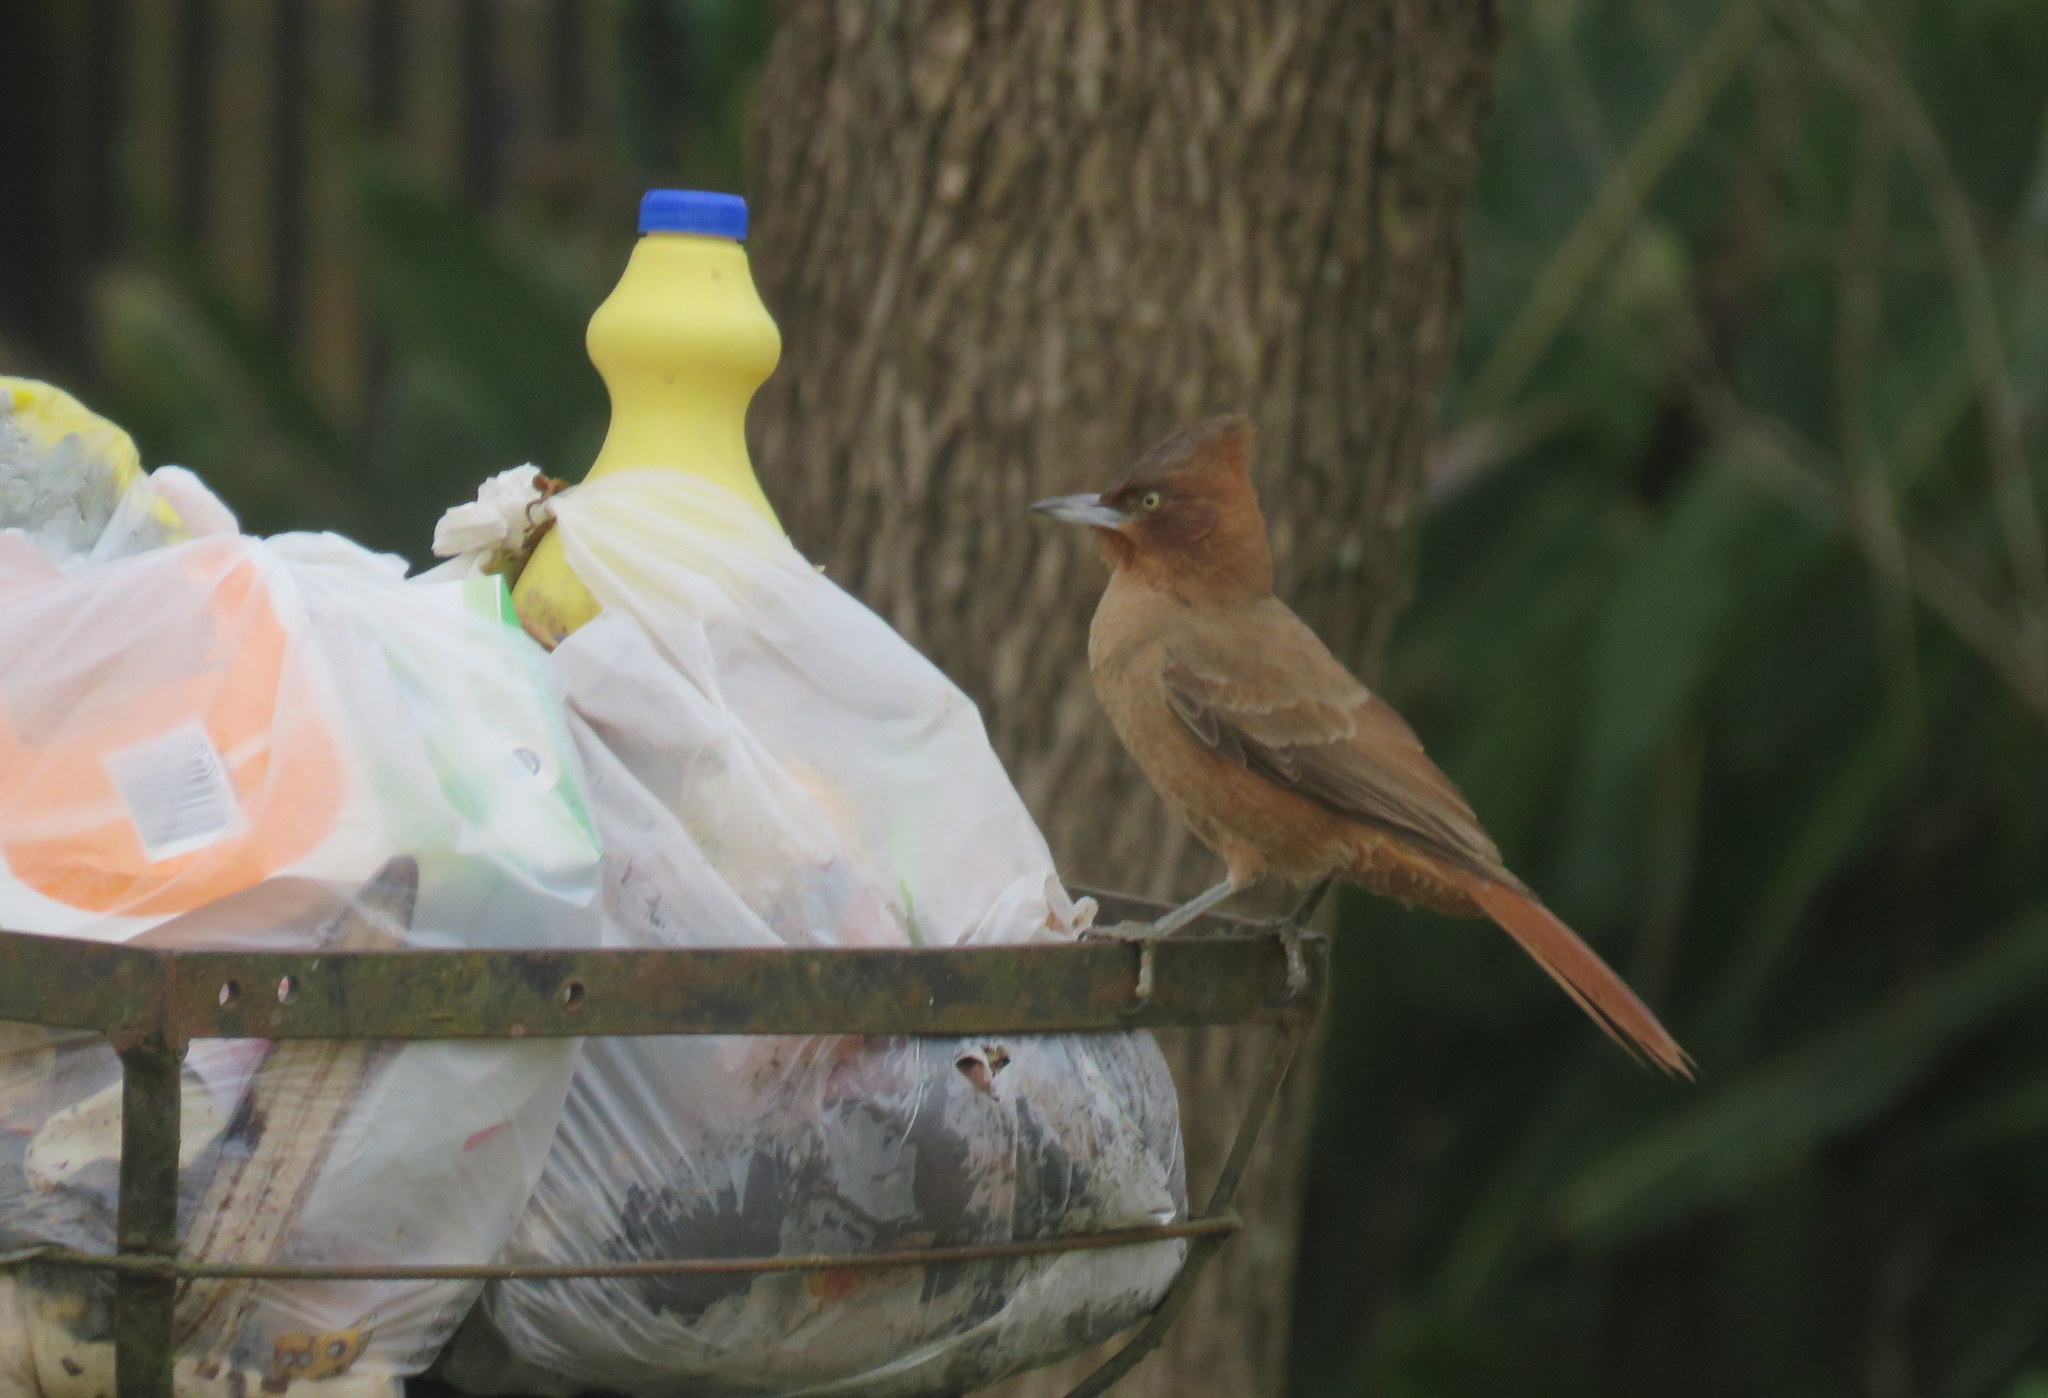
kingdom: Animalia
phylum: Chordata
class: Aves
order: Passeriformes
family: Furnariidae
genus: Pseudoseisura
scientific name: Pseudoseisura lophotes
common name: Brown cacholote
